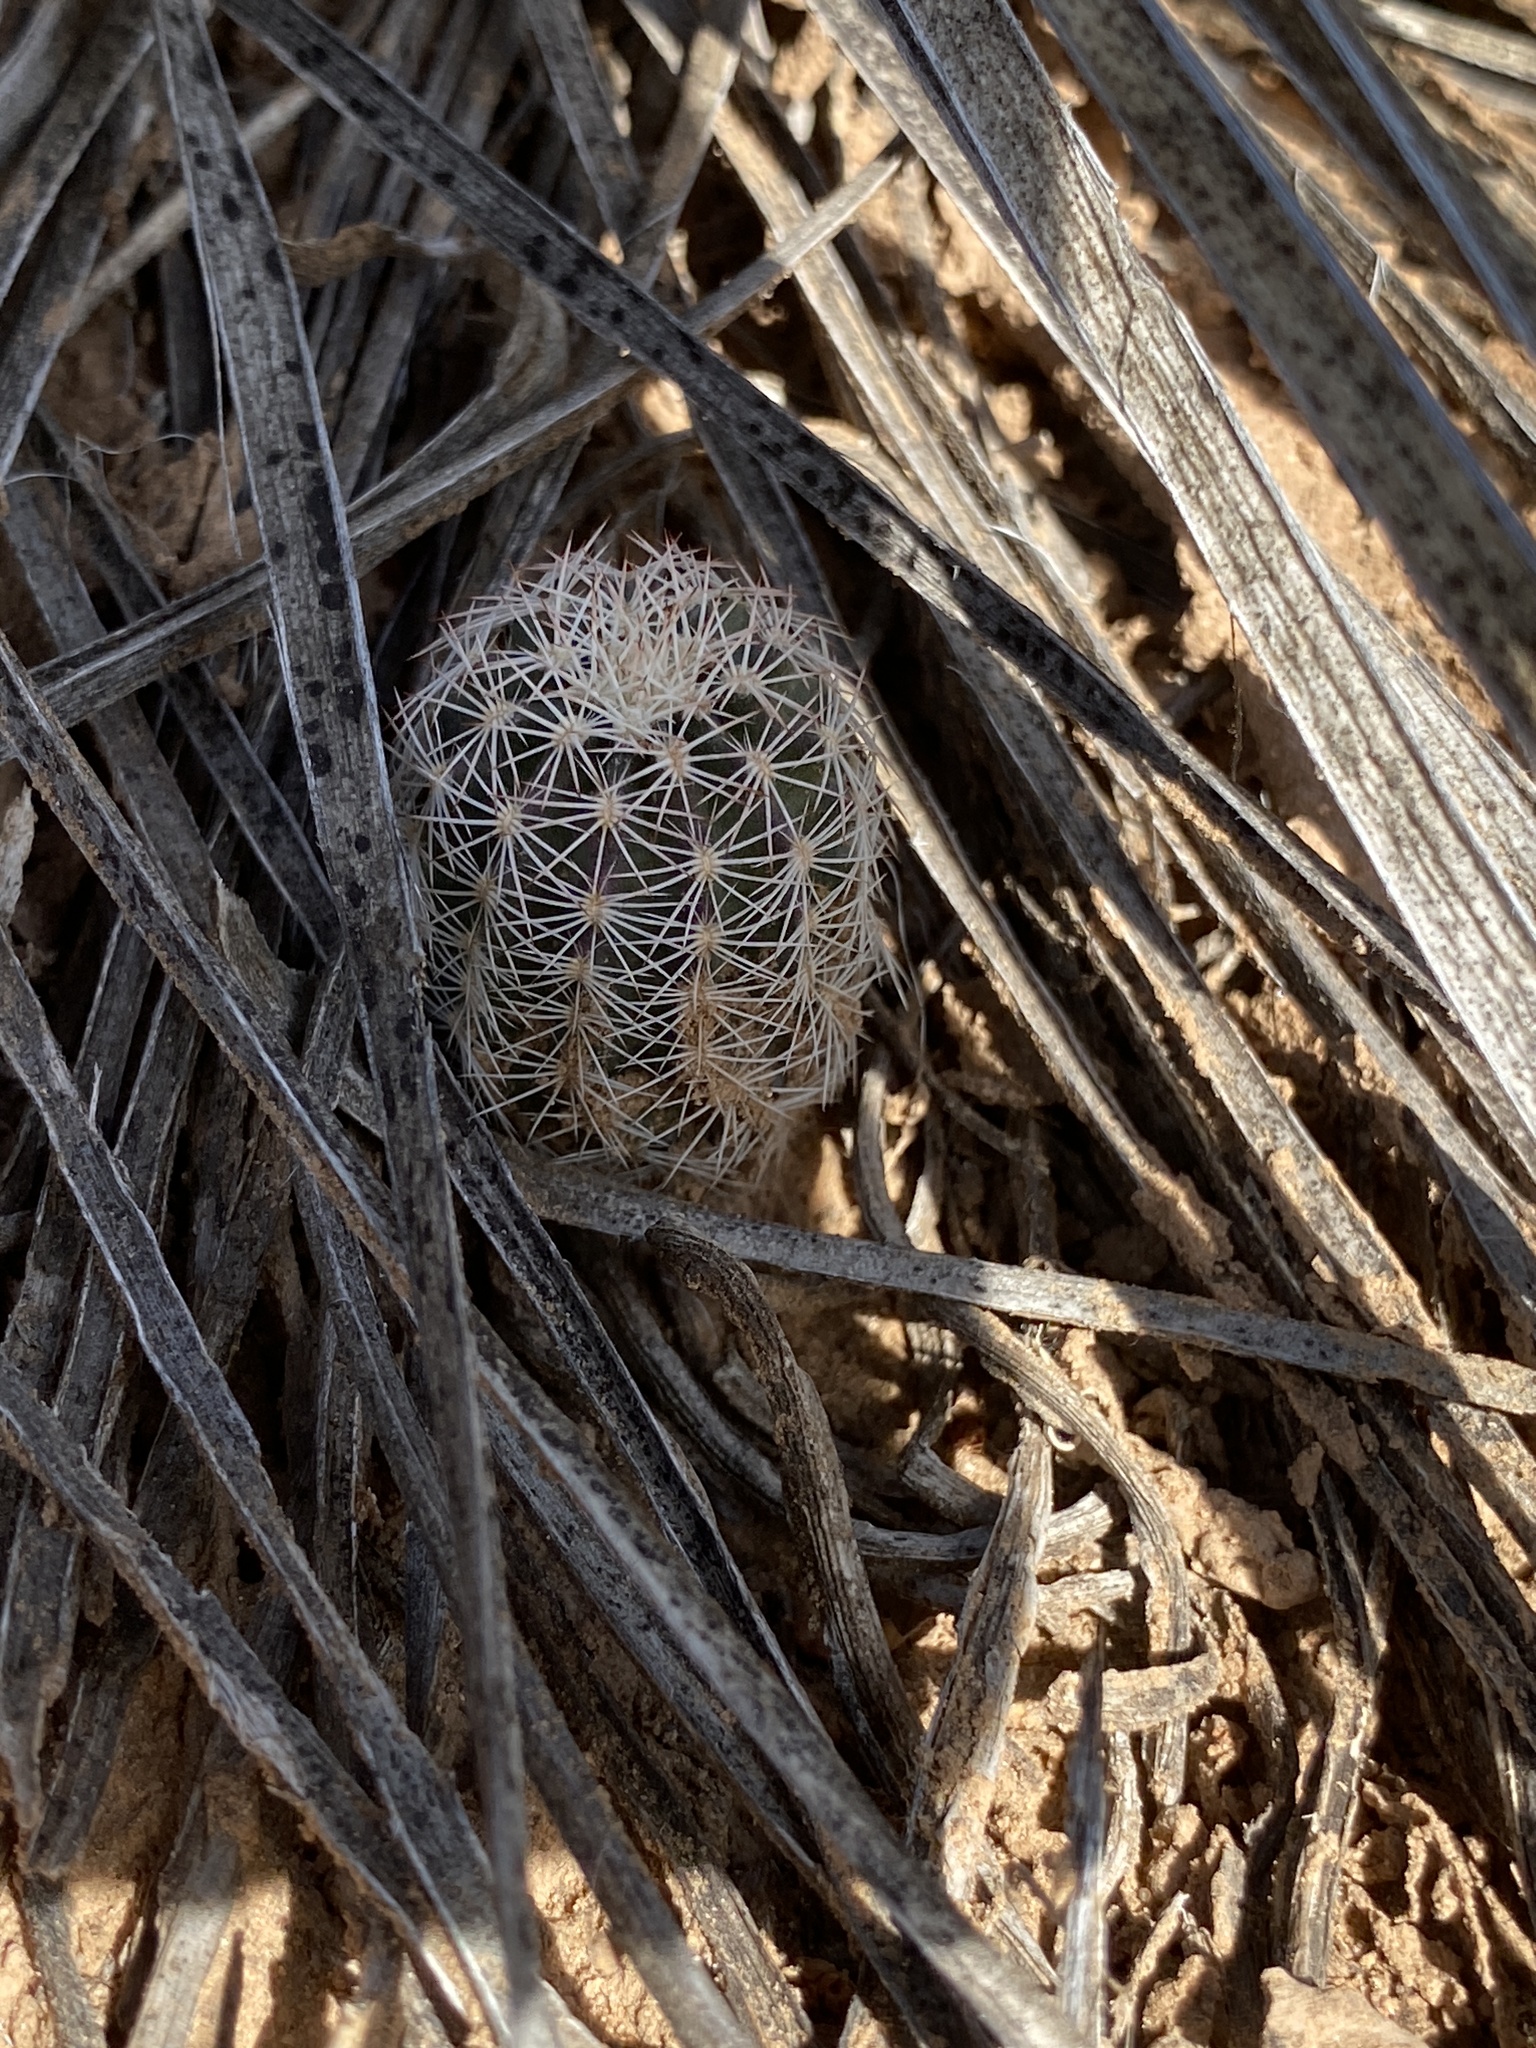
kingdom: Plantae
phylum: Tracheophyta
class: Magnoliopsida
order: Caryophyllales
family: Cactaceae
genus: Echinocereus
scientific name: Echinocereus reichenbachii
